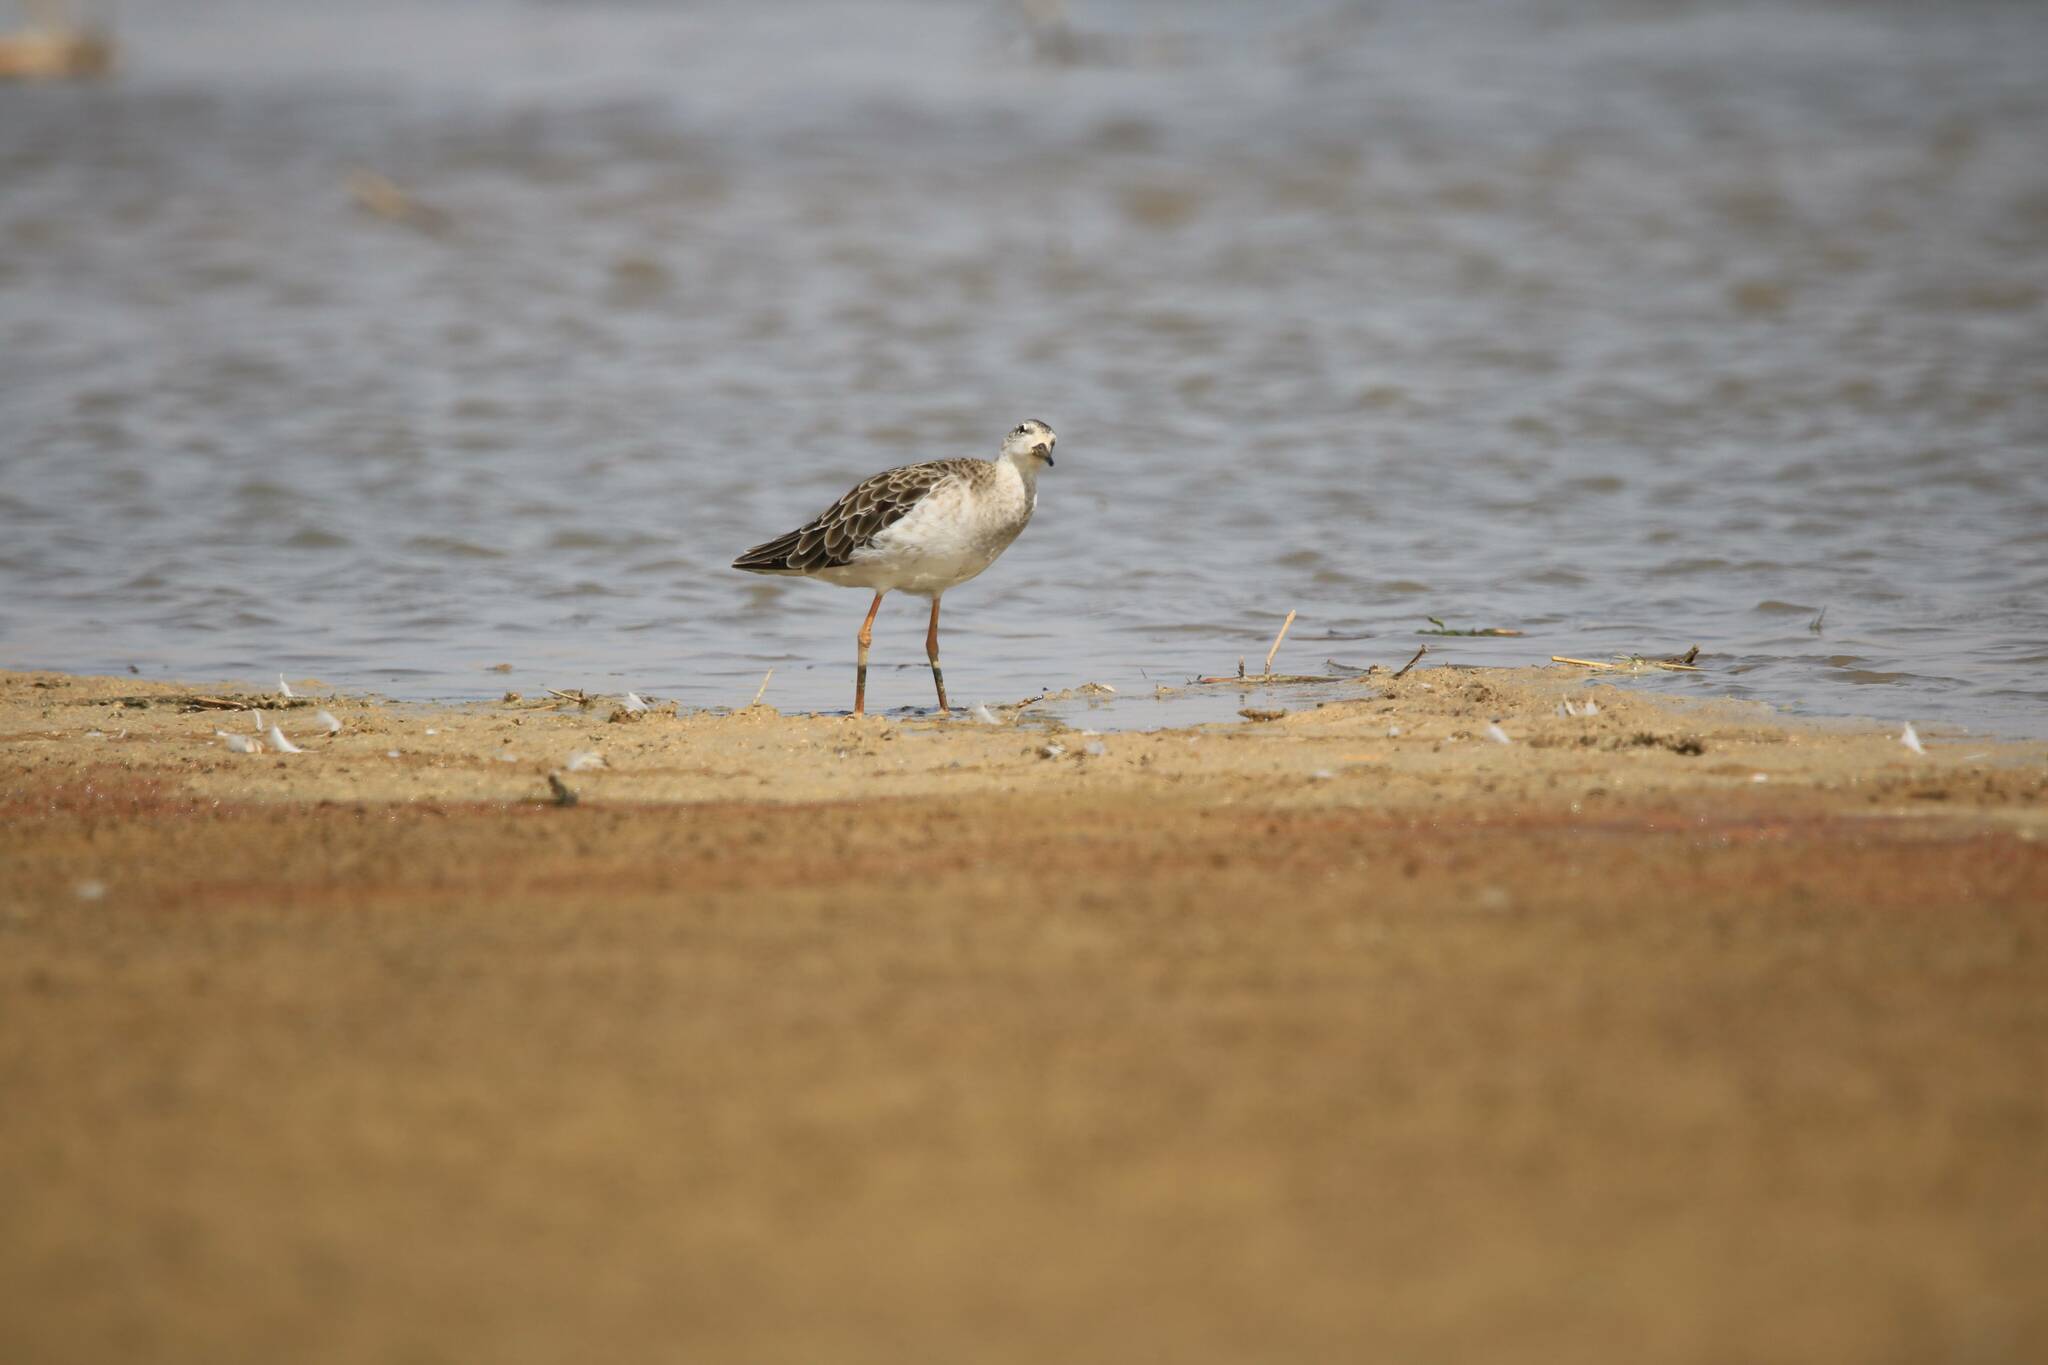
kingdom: Animalia
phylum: Chordata
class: Aves
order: Charadriiformes
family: Scolopacidae
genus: Calidris
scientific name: Calidris pugnax
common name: Ruff
